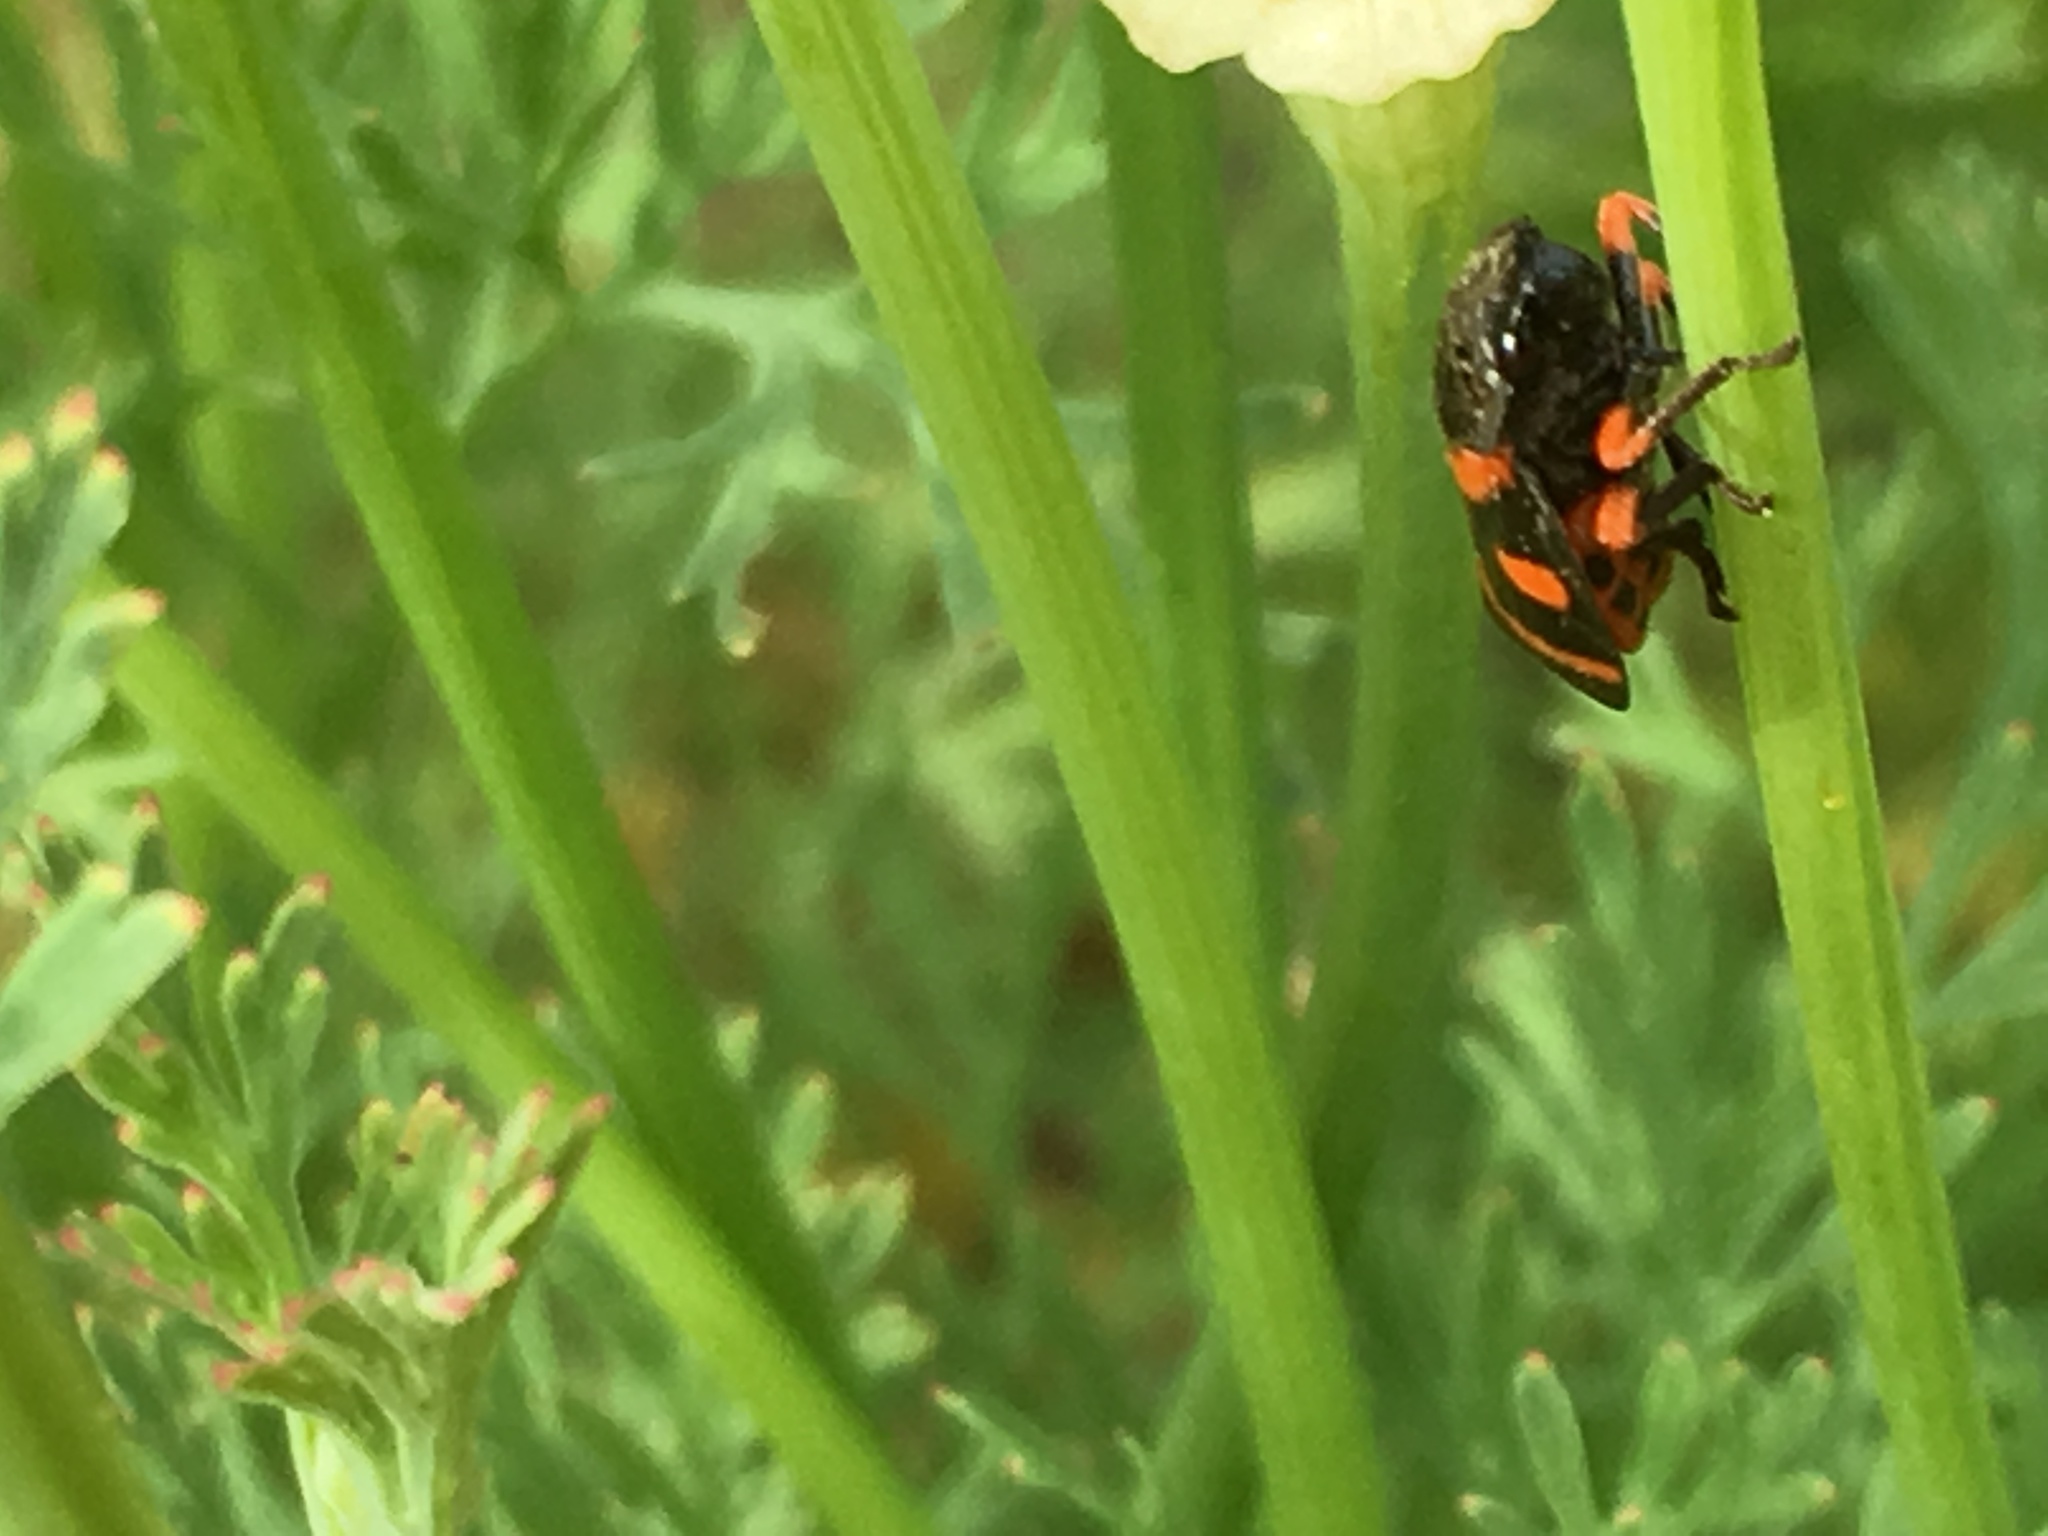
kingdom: Animalia
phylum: Arthropoda
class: Insecta
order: Hemiptera
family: Cercopidae
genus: Cercopis
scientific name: Cercopis intermedia
